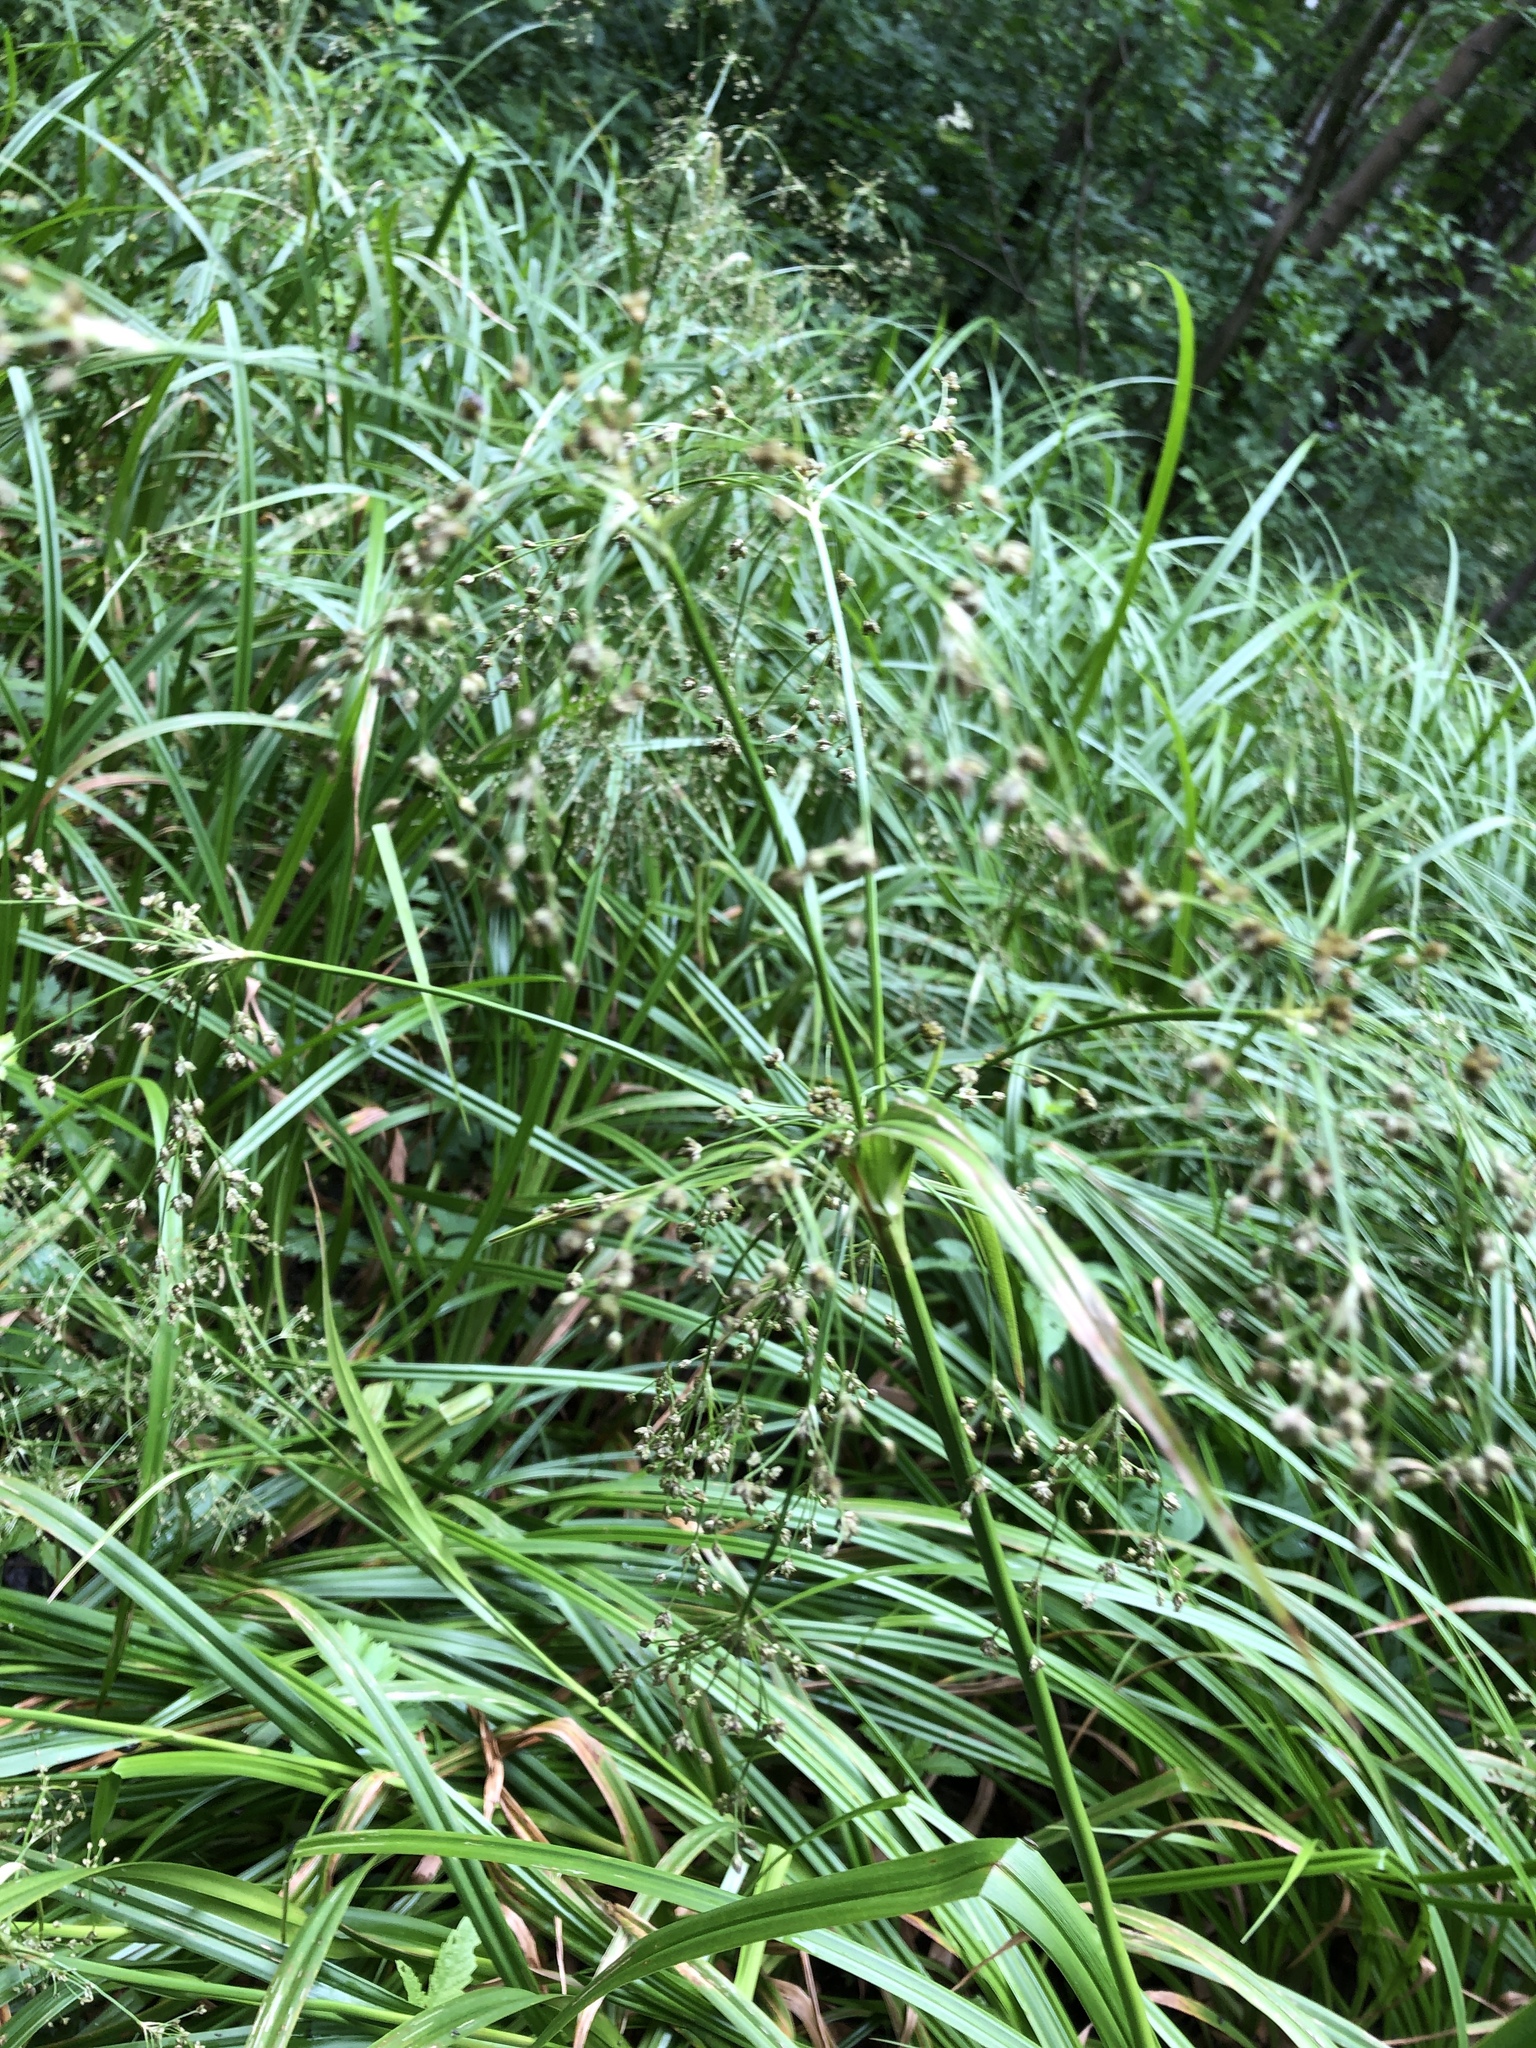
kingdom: Plantae
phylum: Tracheophyta
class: Liliopsida
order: Poales
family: Cyperaceae
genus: Scirpus
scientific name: Scirpus sylvaticus
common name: Wood club-rush
